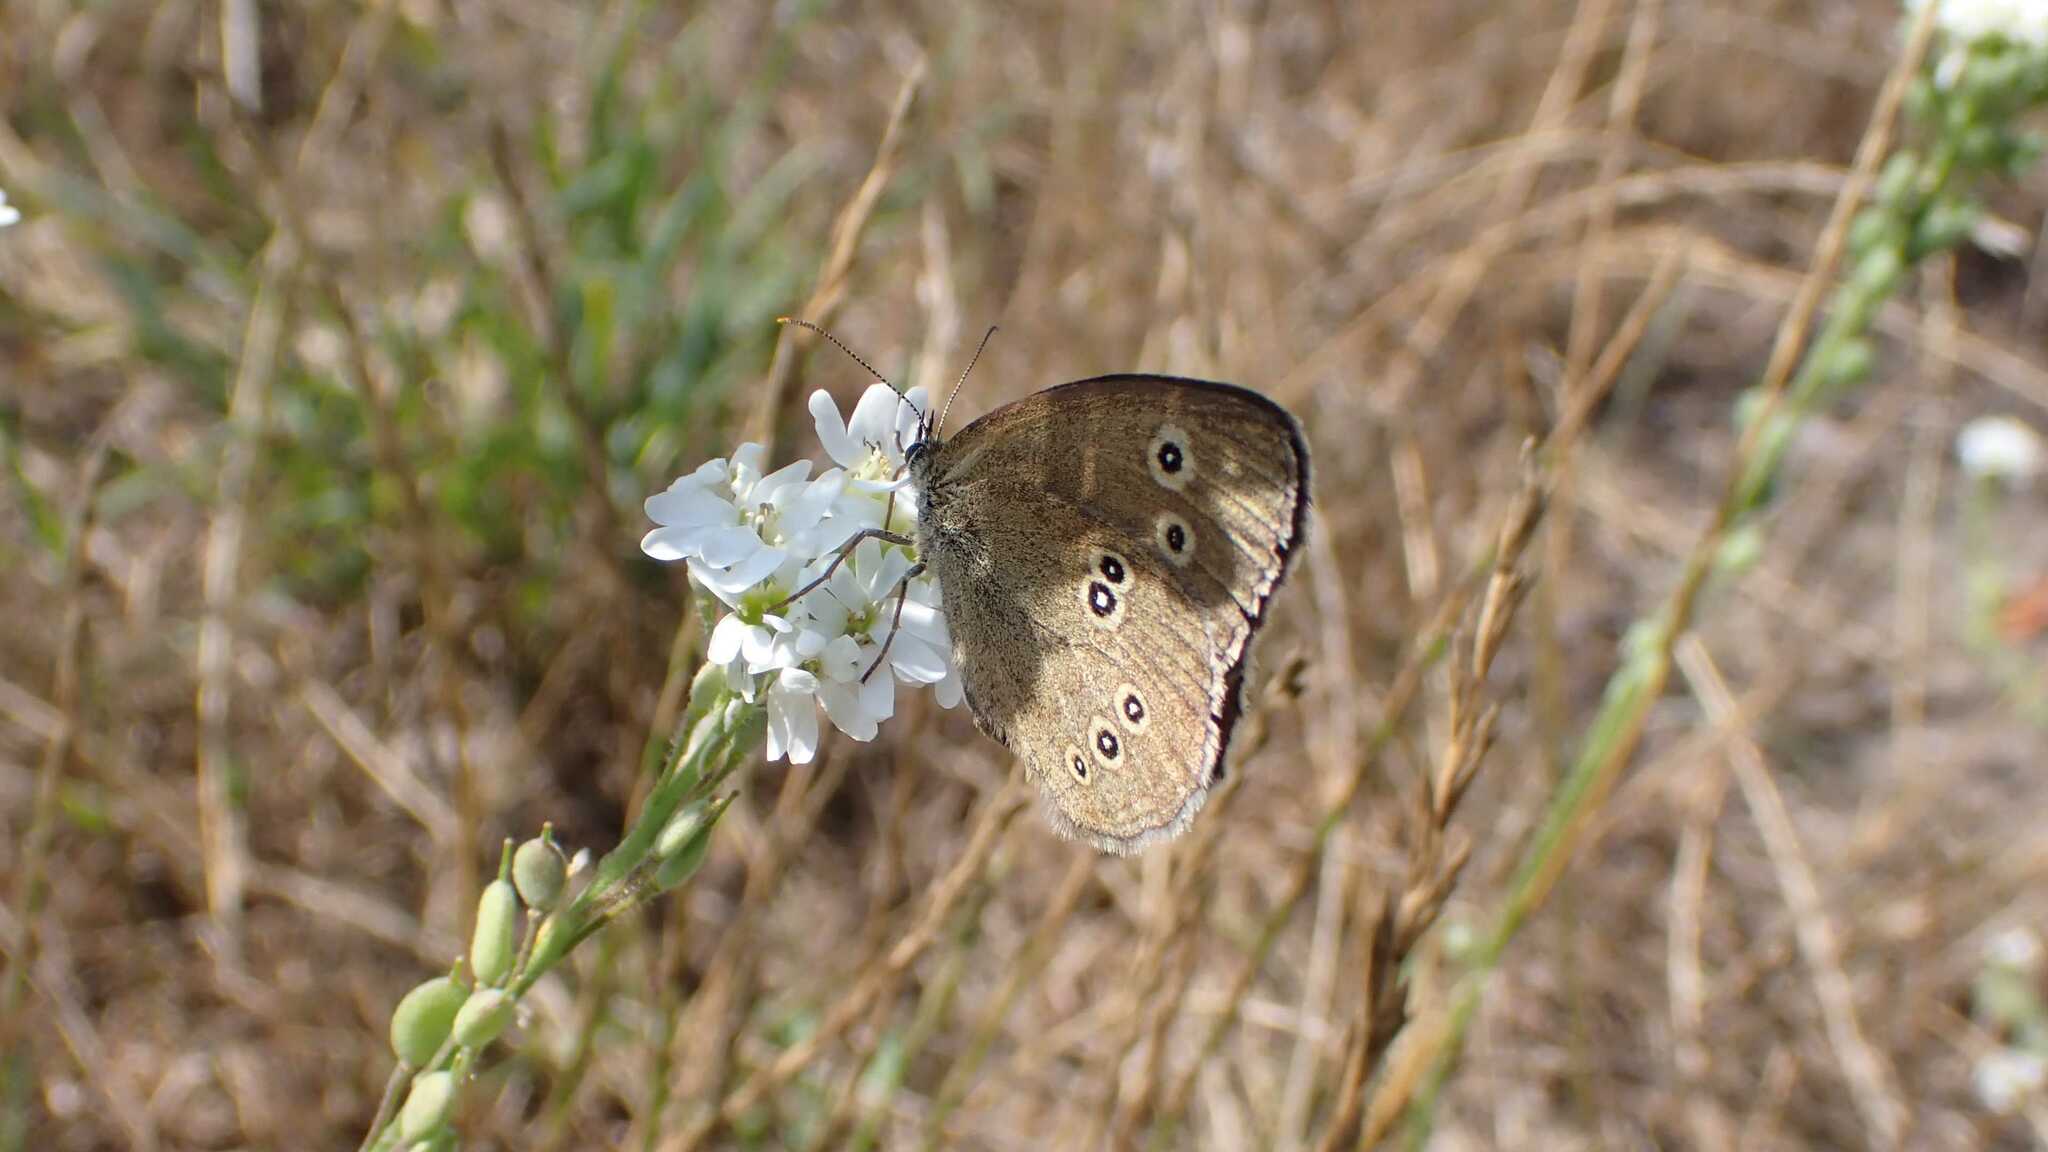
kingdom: Animalia
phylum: Arthropoda
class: Insecta
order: Lepidoptera
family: Nymphalidae
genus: Aphantopus
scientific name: Aphantopus hyperantus
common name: Ringlet
